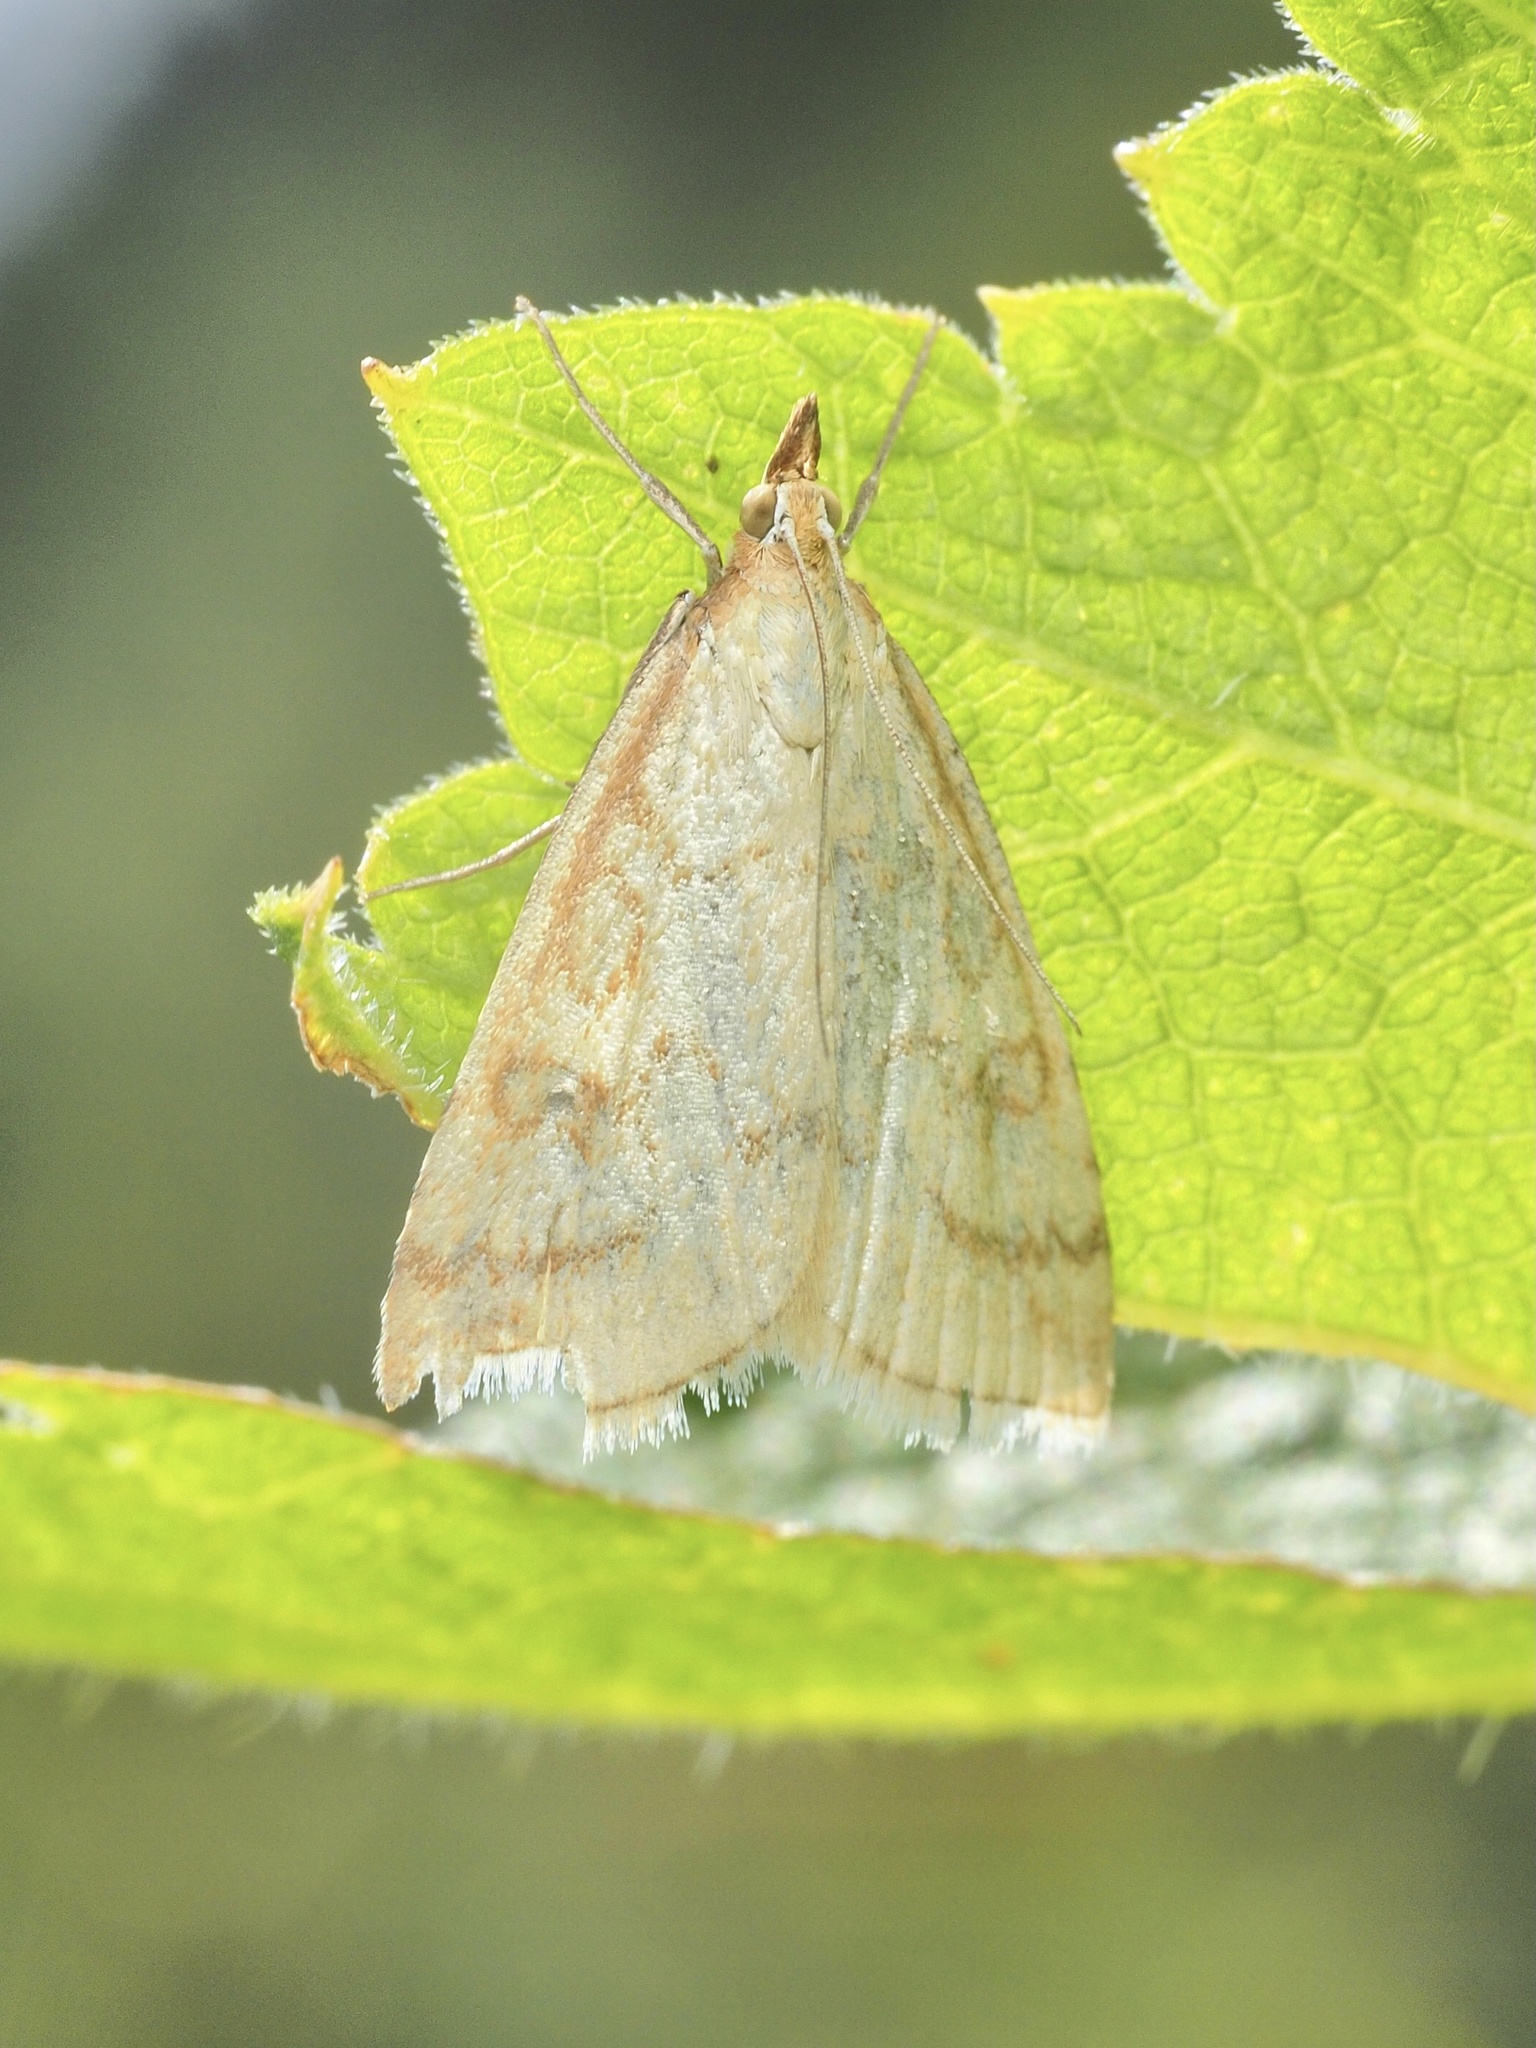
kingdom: Animalia
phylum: Arthropoda
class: Insecta
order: Lepidoptera
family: Crambidae
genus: Udea
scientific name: Udea lutealis
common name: Pale straw pearl
